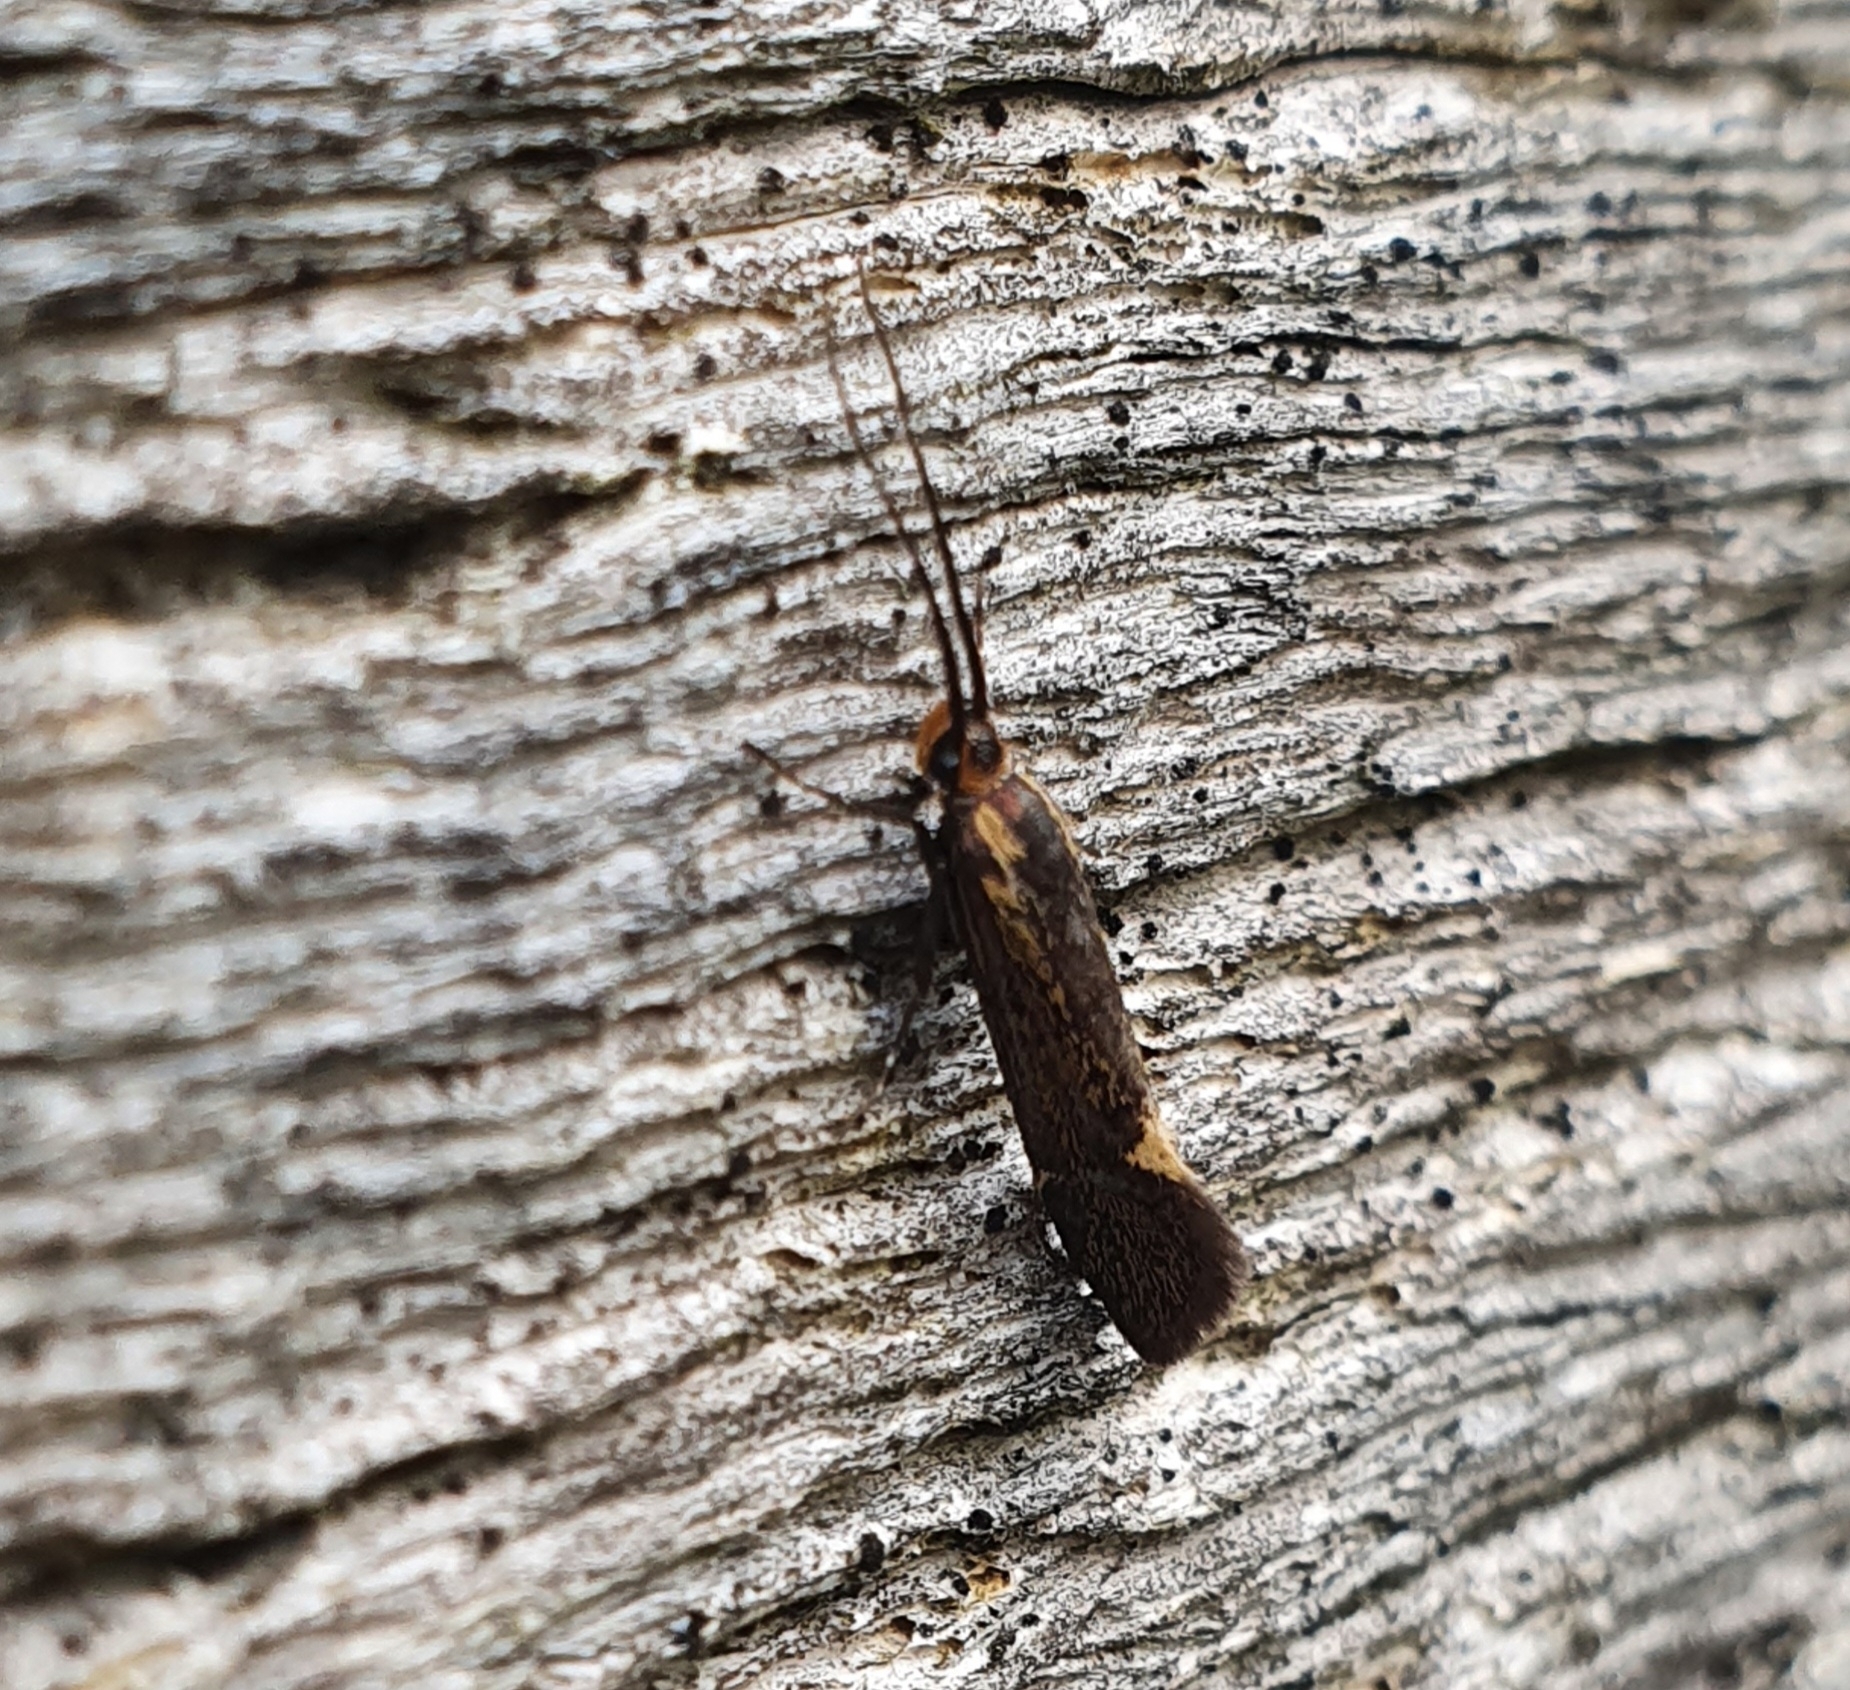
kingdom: Animalia
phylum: Arthropoda
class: Insecta
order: Lepidoptera
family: Oecophoridae
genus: Dafa
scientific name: Dafa Esperia sulphurella
